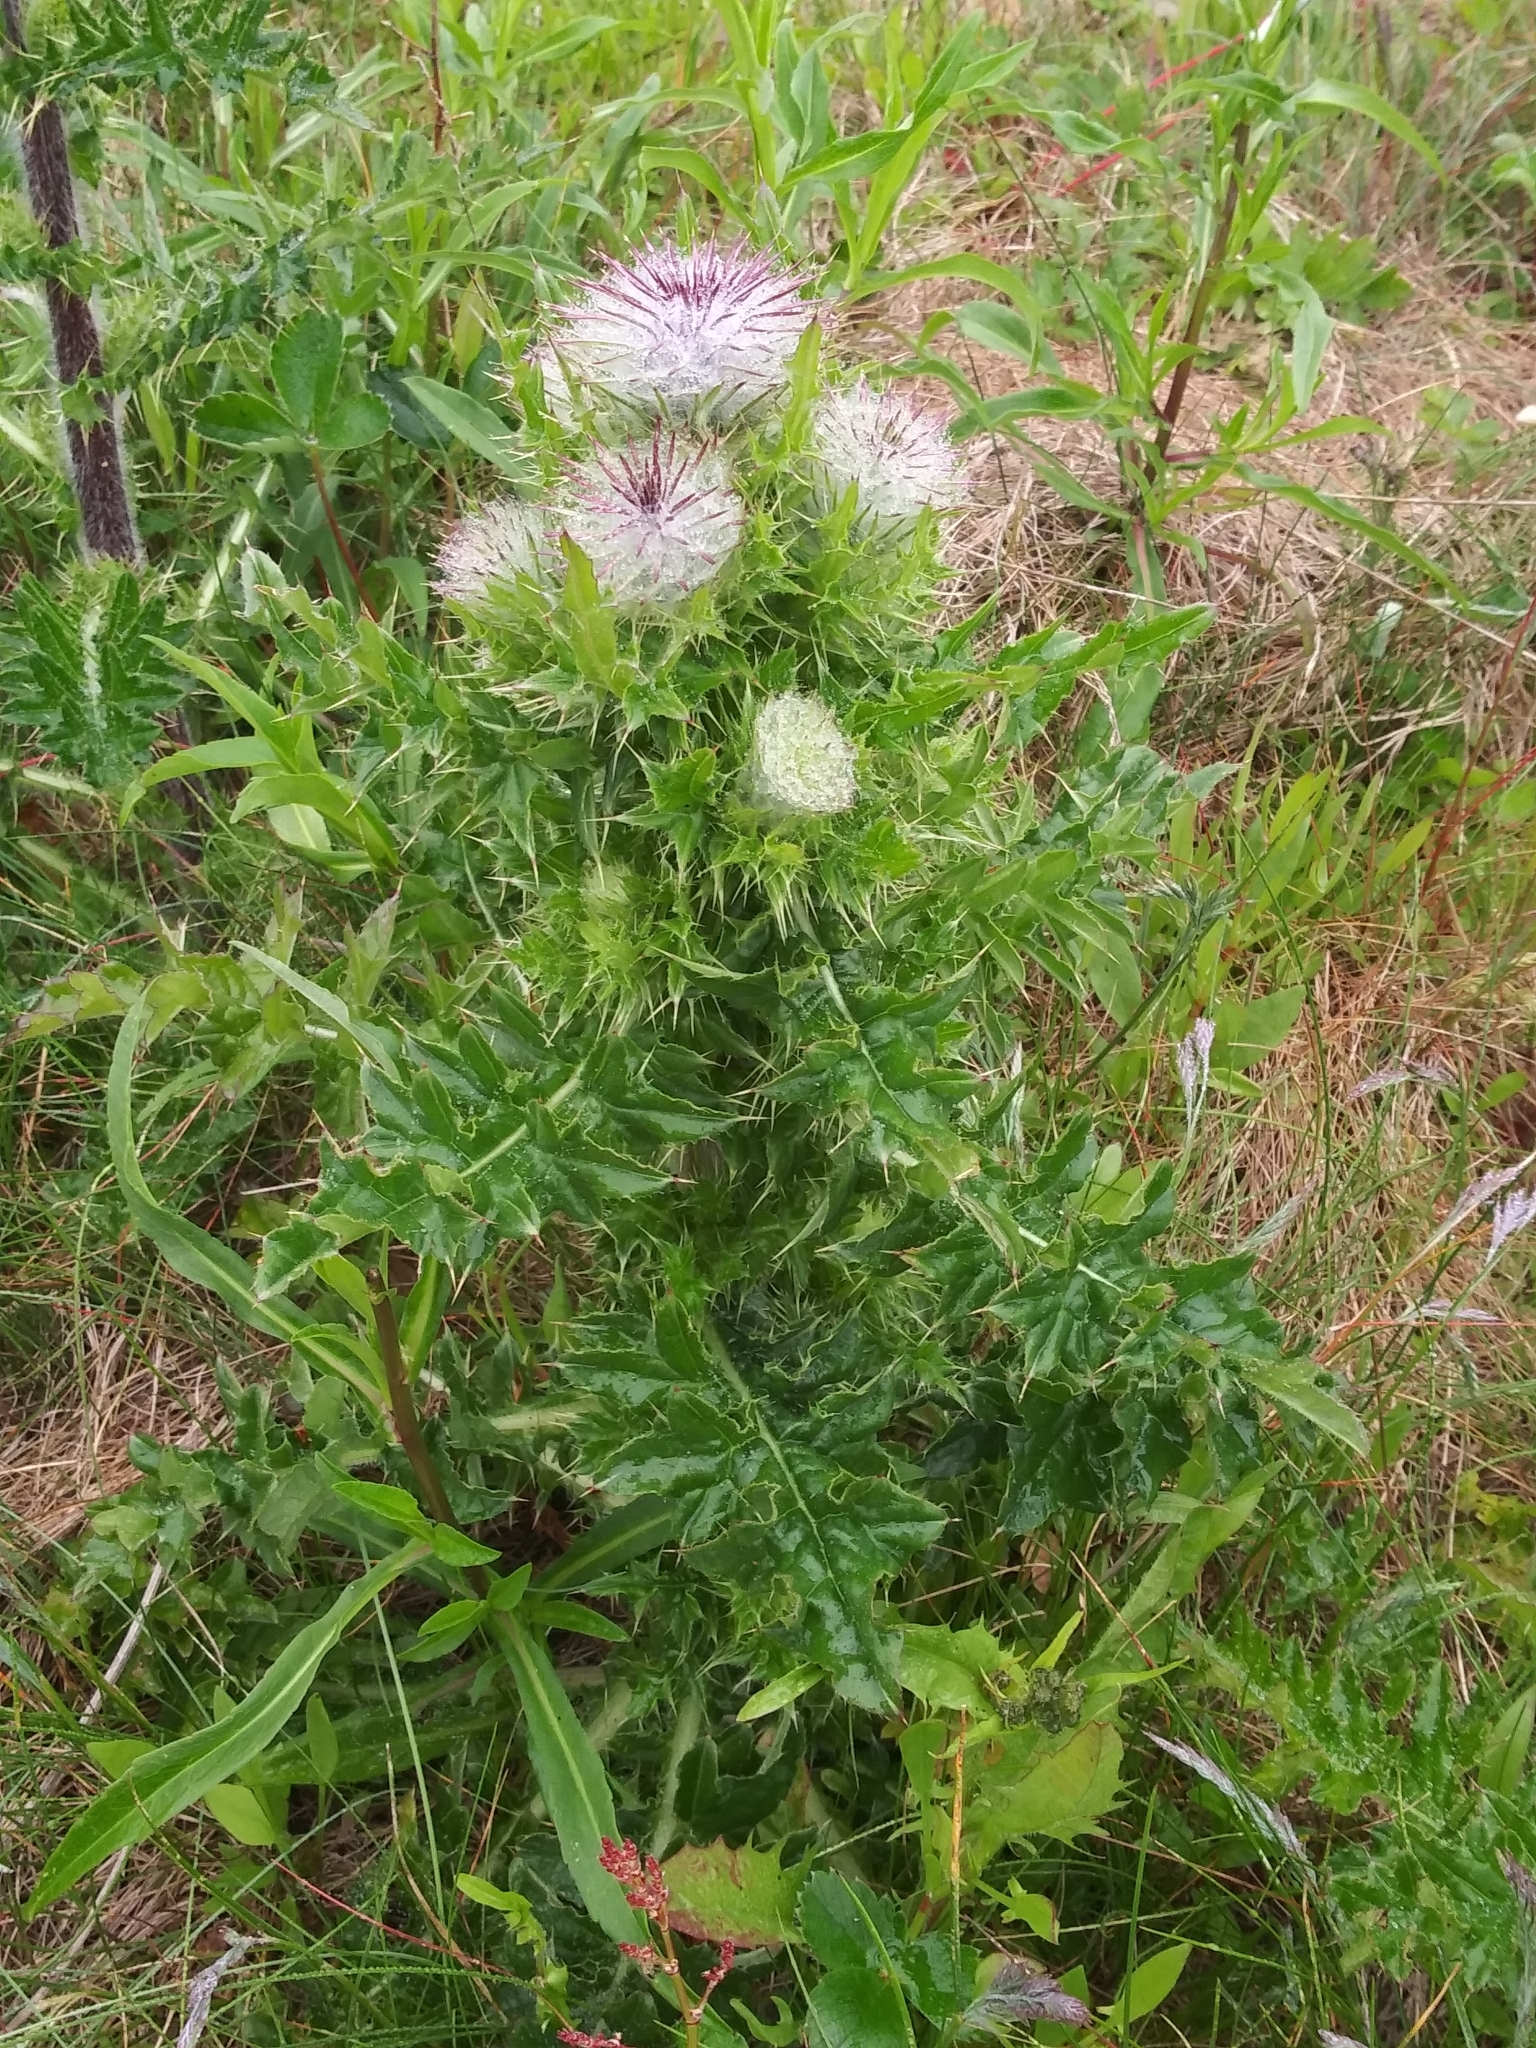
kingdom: Plantae
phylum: Tracheophyta
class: Magnoliopsida
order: Asterales
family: Asteraceae
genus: Cirsium
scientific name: Cirsium edule
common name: Indian thistle
